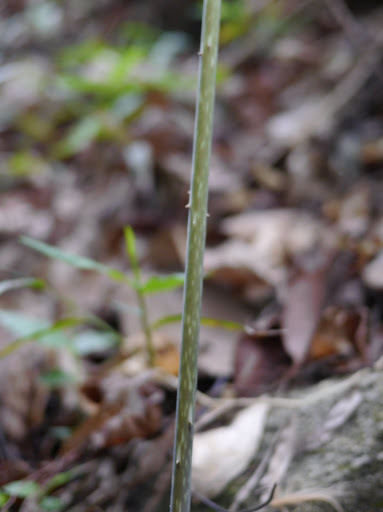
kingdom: Plantae
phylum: Tracheophyta
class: Liliopsida
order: Alismatales
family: Araceae
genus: Anchomanes
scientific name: Anchomanes dalzielii
